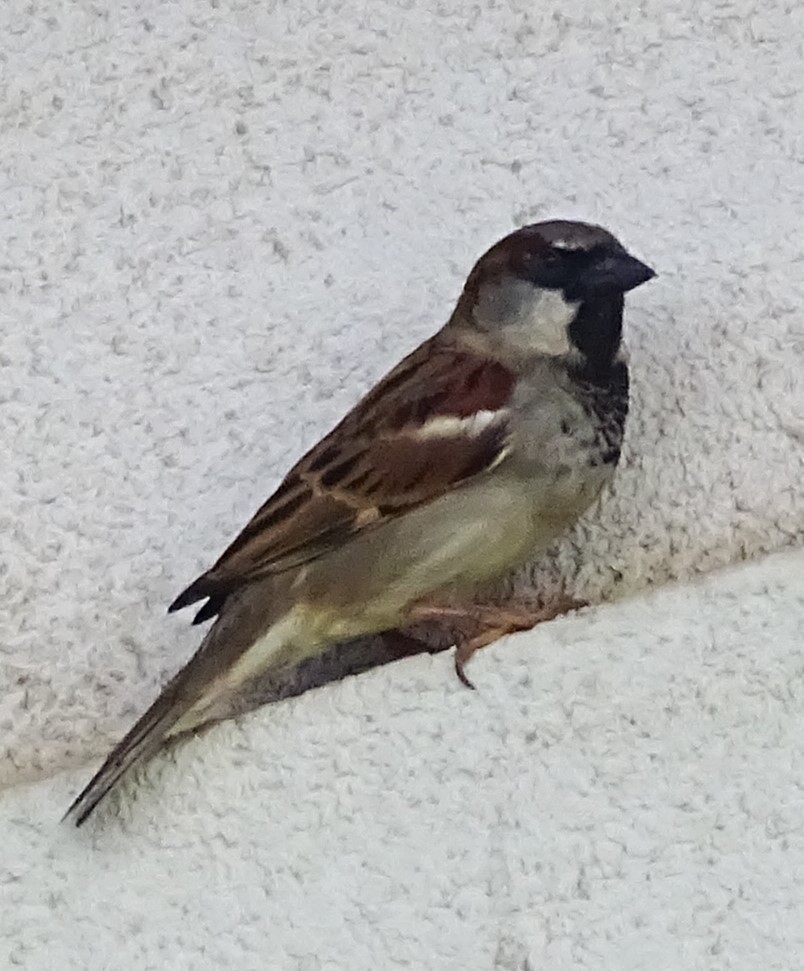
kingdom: Animalia
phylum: Chordata
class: Aves
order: Passeriformes
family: Passeridae
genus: Passer
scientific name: Passer domesticus
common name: House sparrow
